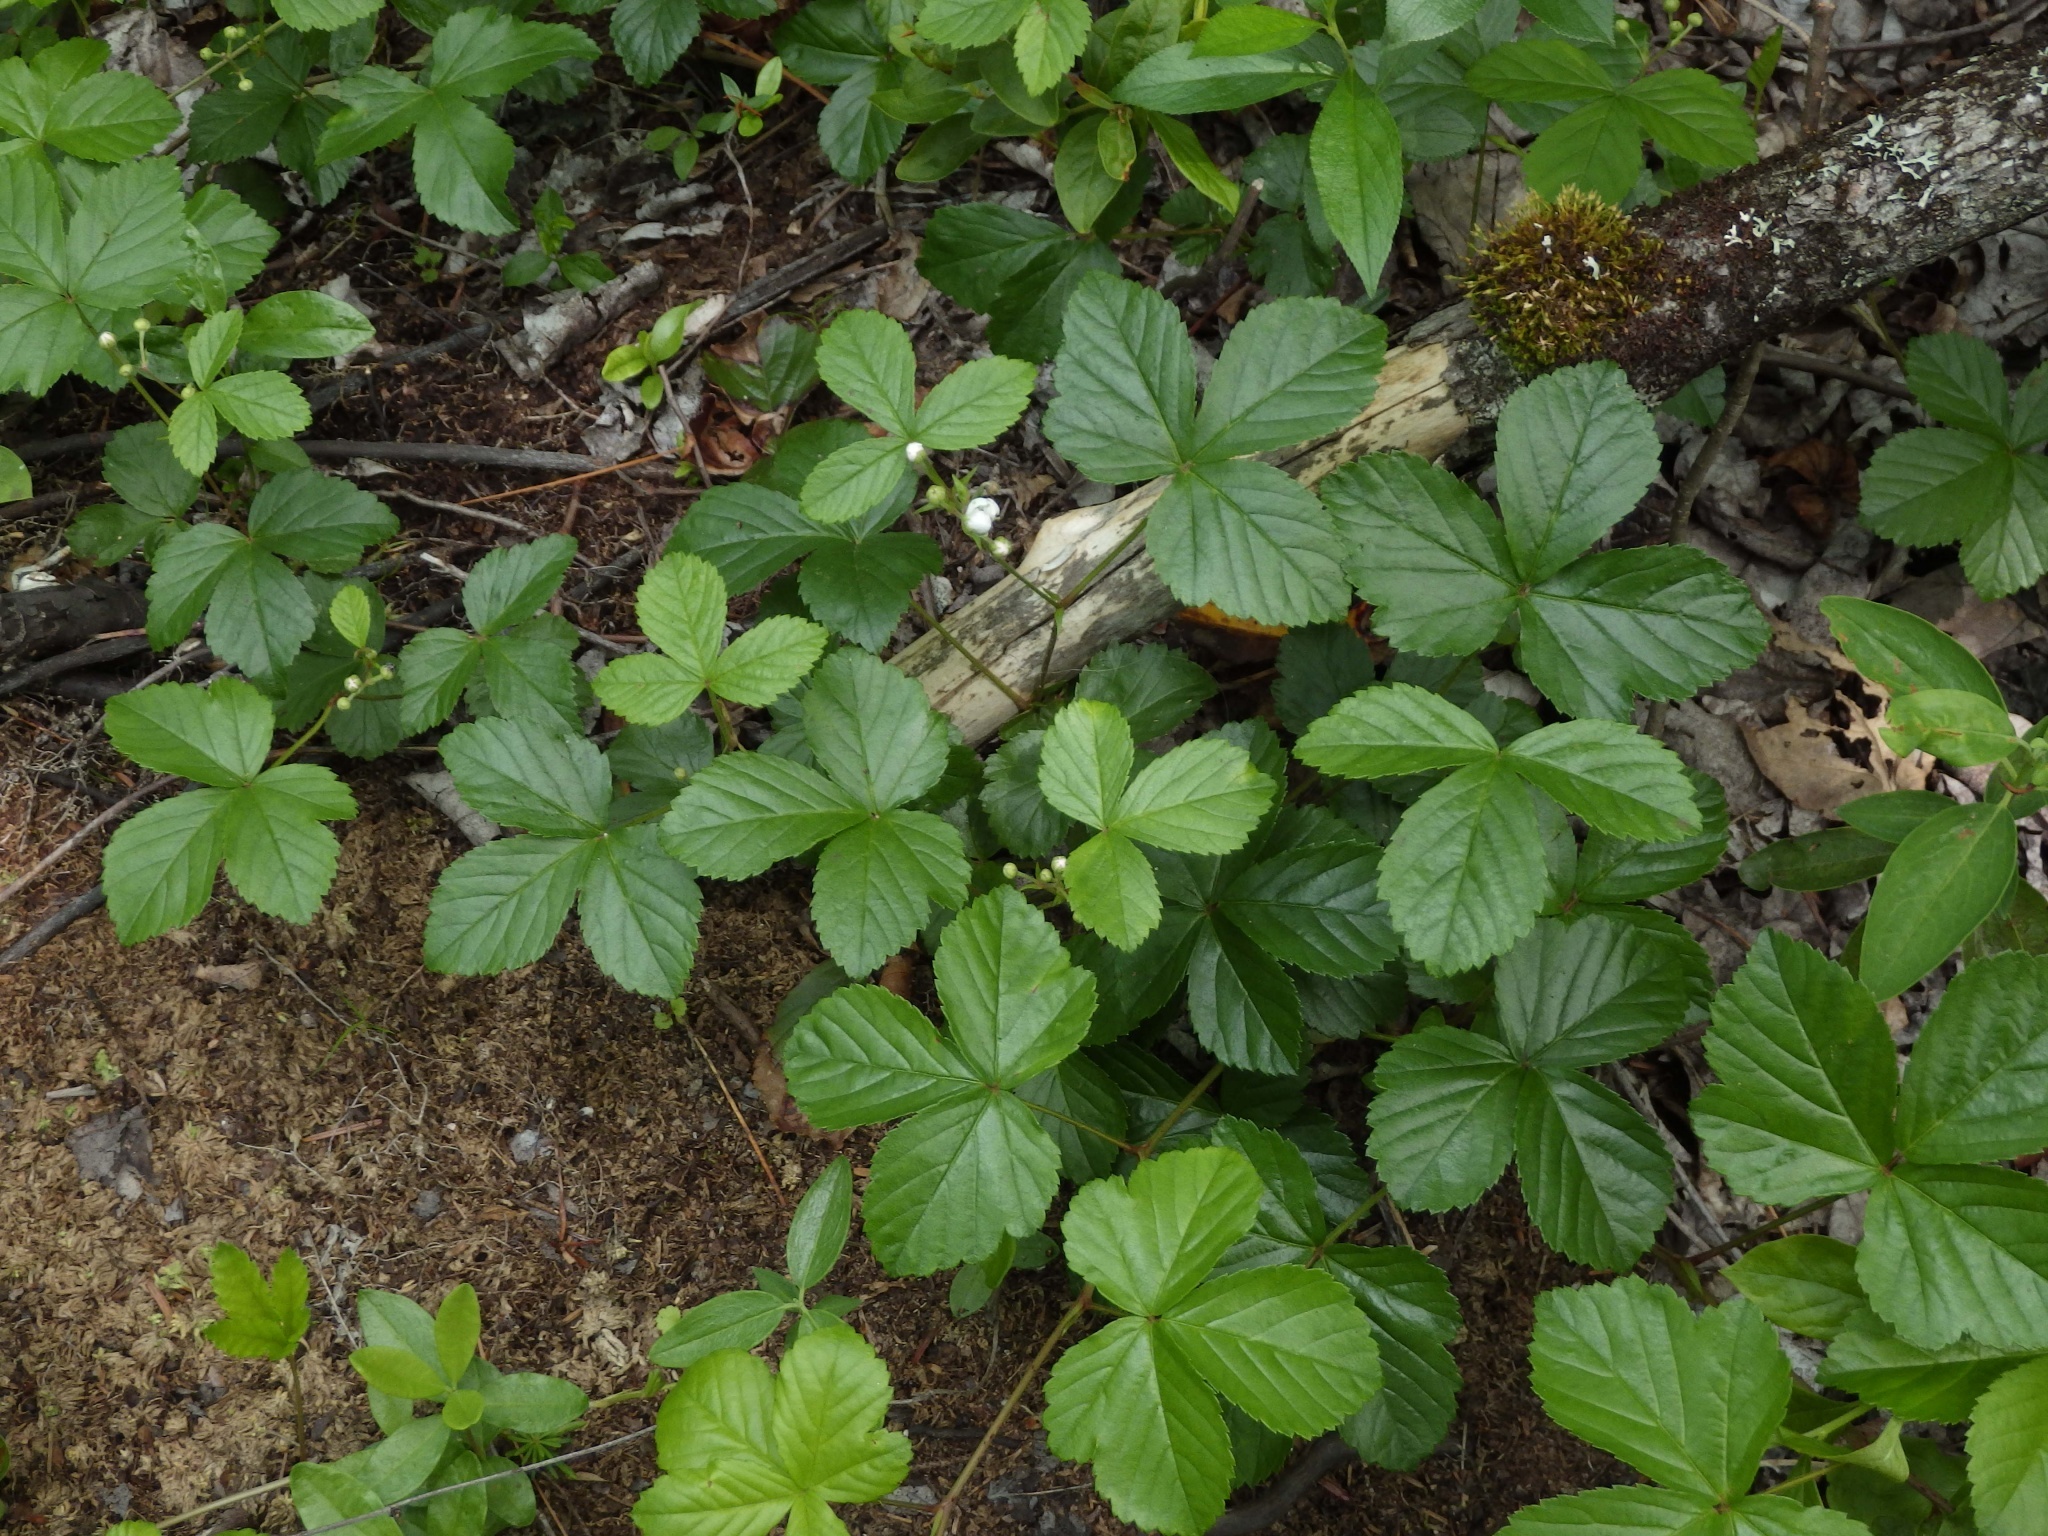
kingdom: Plantae
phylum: Tracheophyta
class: Magnoliopsida
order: Rosales
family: Rosaceae
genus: Rubus
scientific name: Rubus hispidus
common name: Running blackberry
